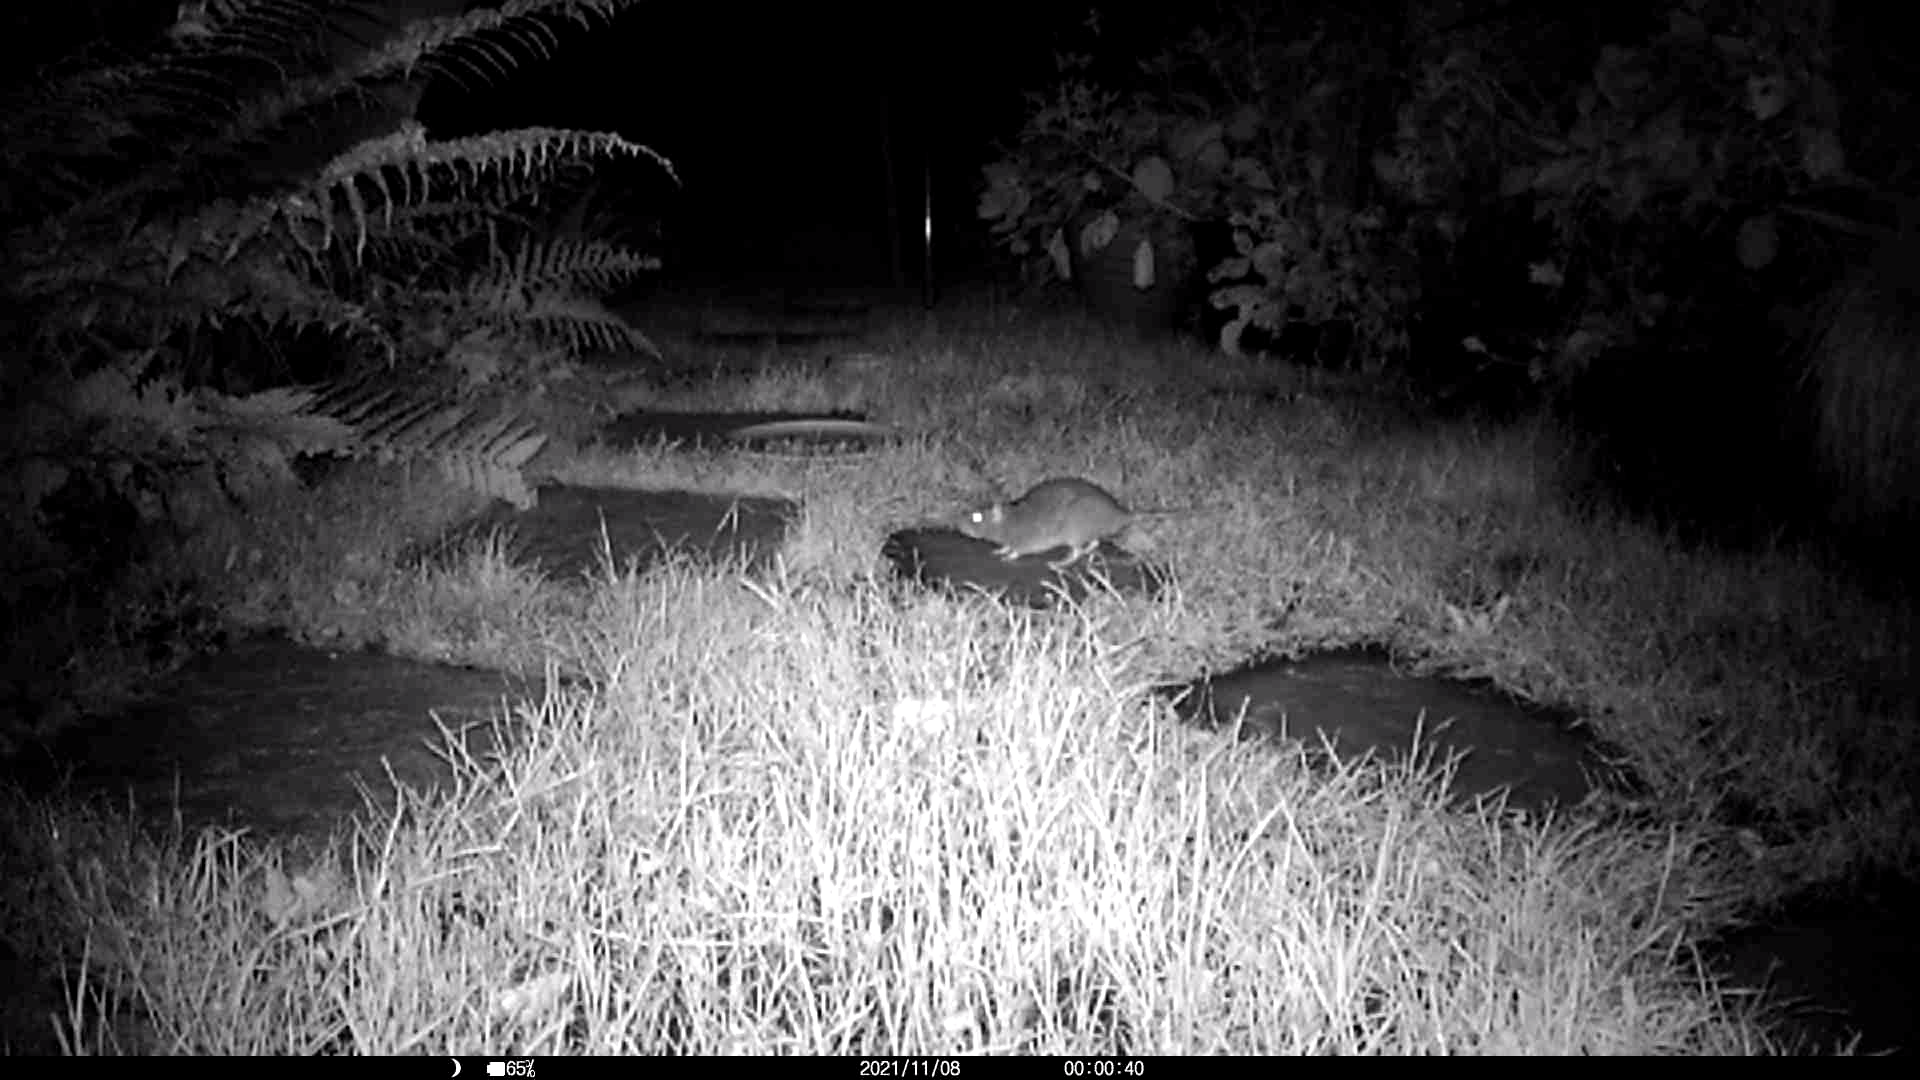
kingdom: Animalia
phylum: Chordata
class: Mammalia
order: Rodentia
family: Muridae
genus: Rattus
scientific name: Rattus norvegicus
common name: Brown rat
